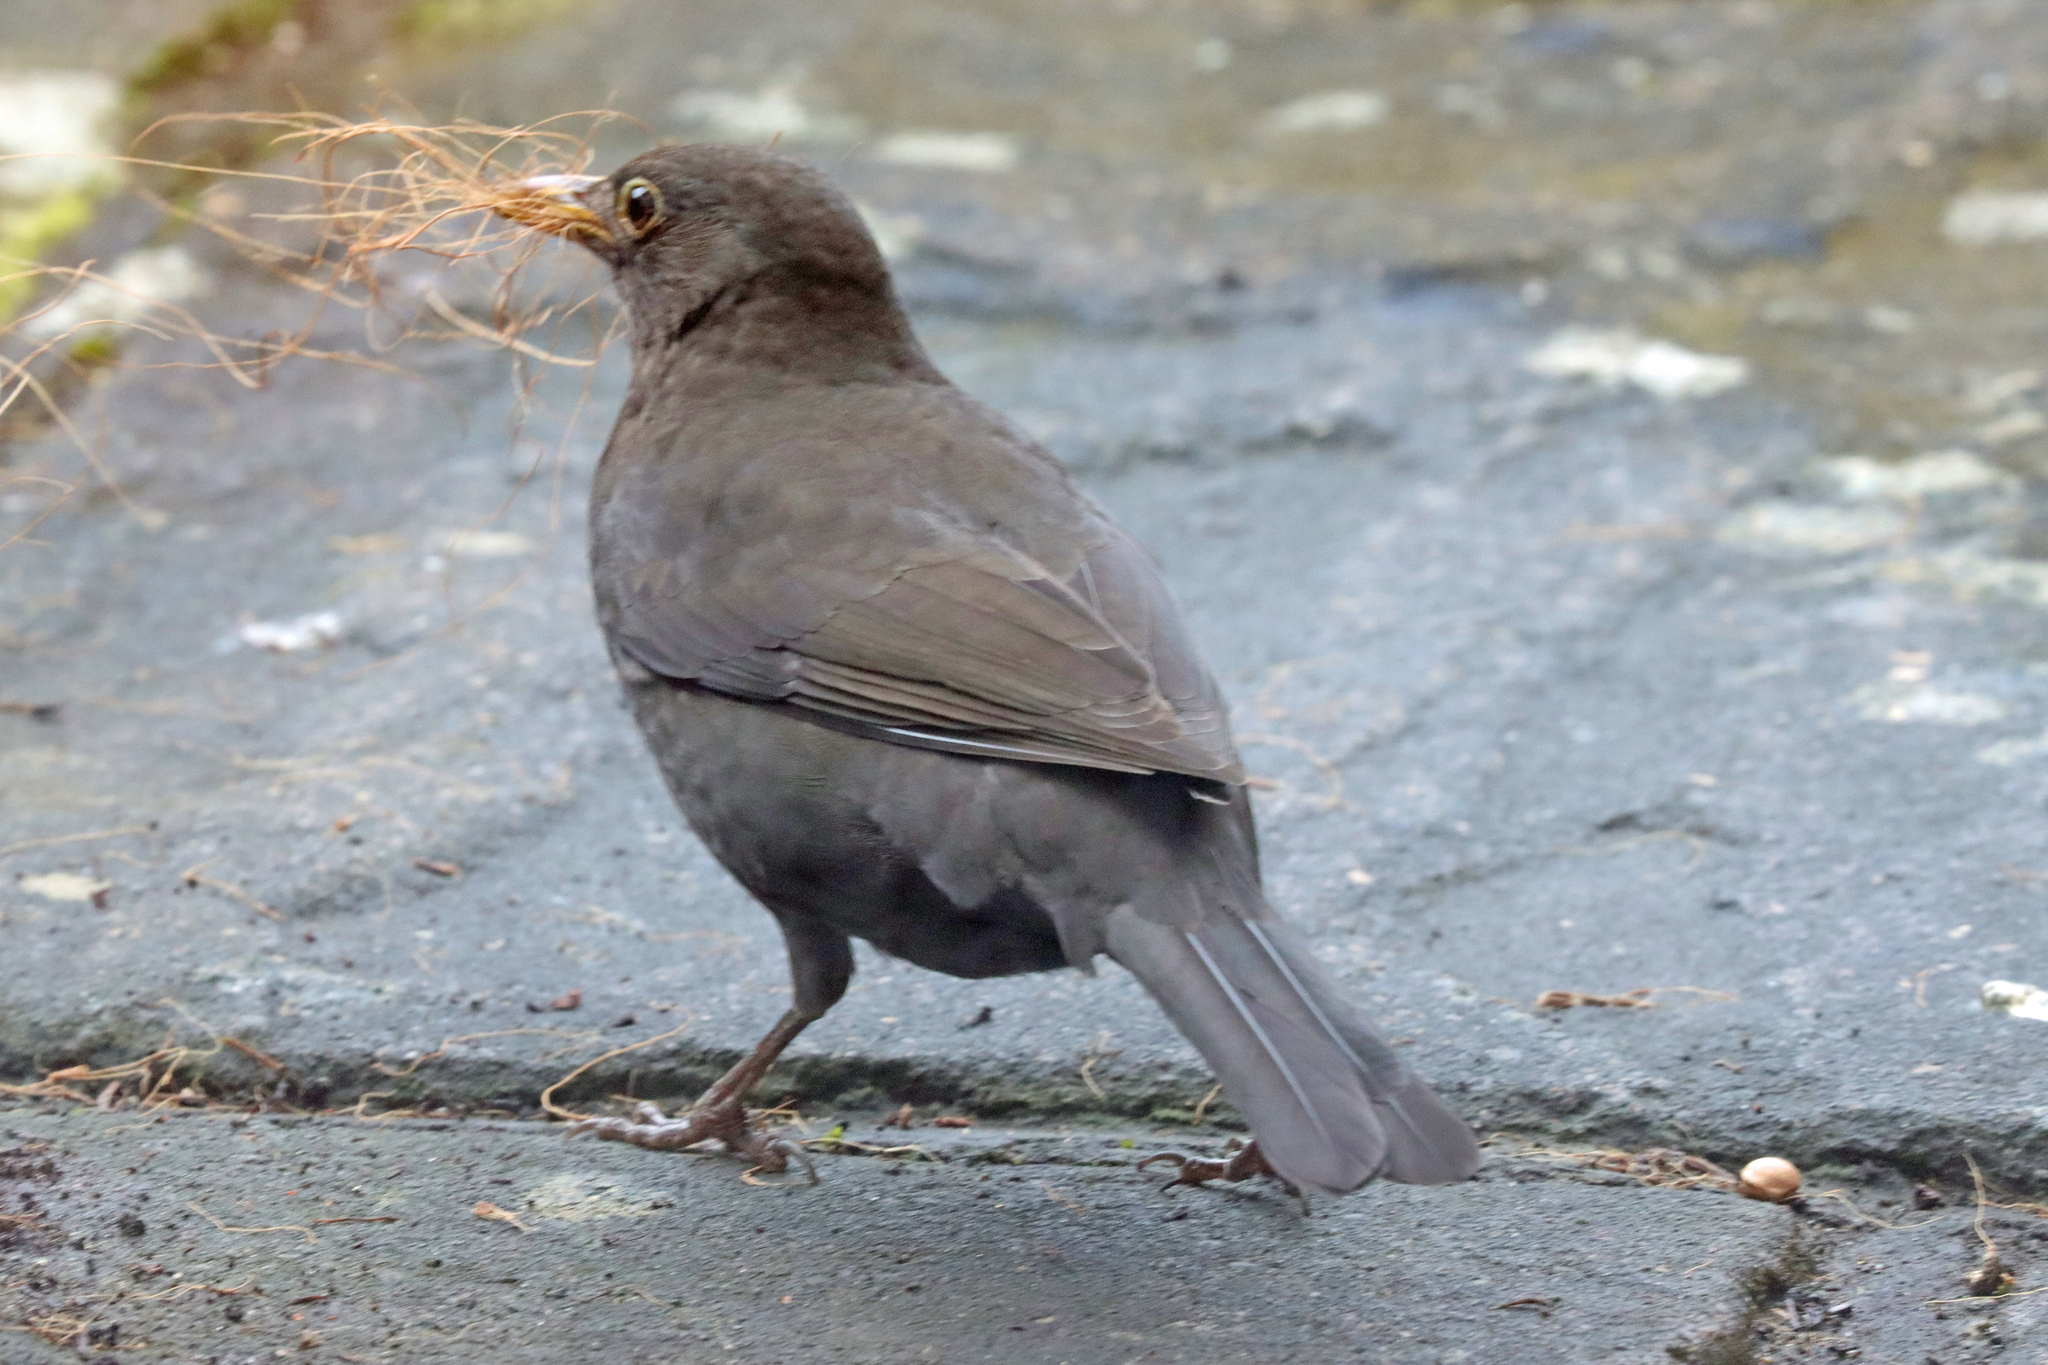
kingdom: Animalia
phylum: Chordata
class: Aves
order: Passeriformes
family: Turdidae
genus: Turdus
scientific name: Turdus merula
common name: Common blackbird
